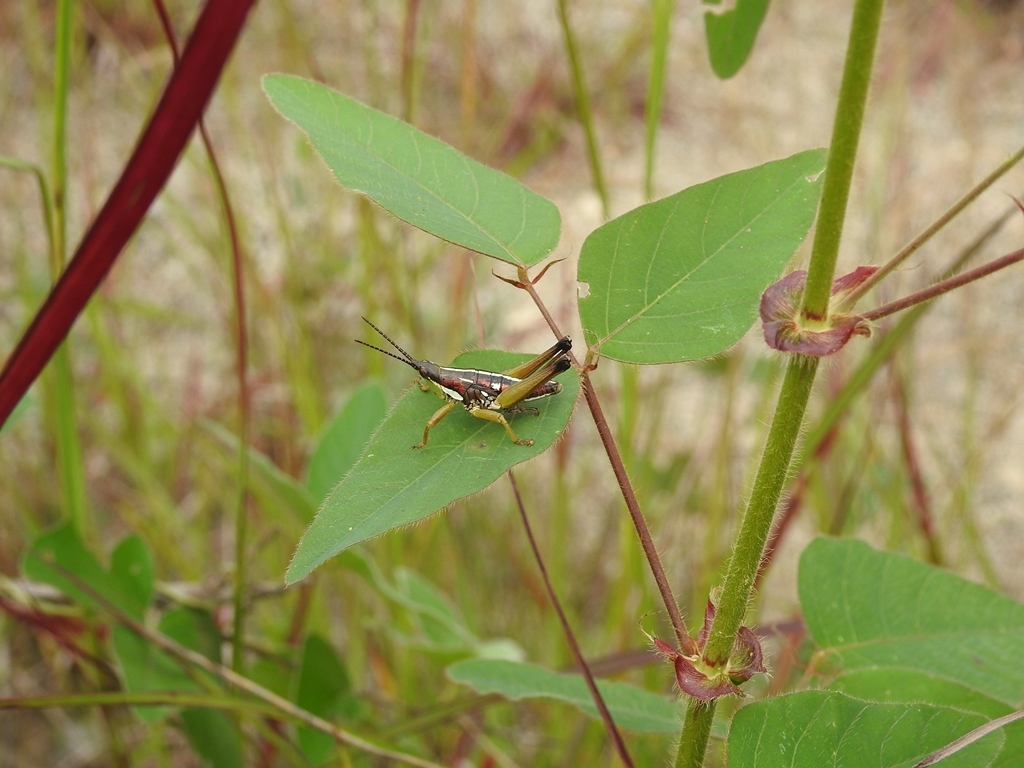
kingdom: Animalia
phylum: Arthropoda
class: Insecta
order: Orthoptera
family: Pyrgomorphidae
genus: Sphenarium
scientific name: Sphenarium histrio
